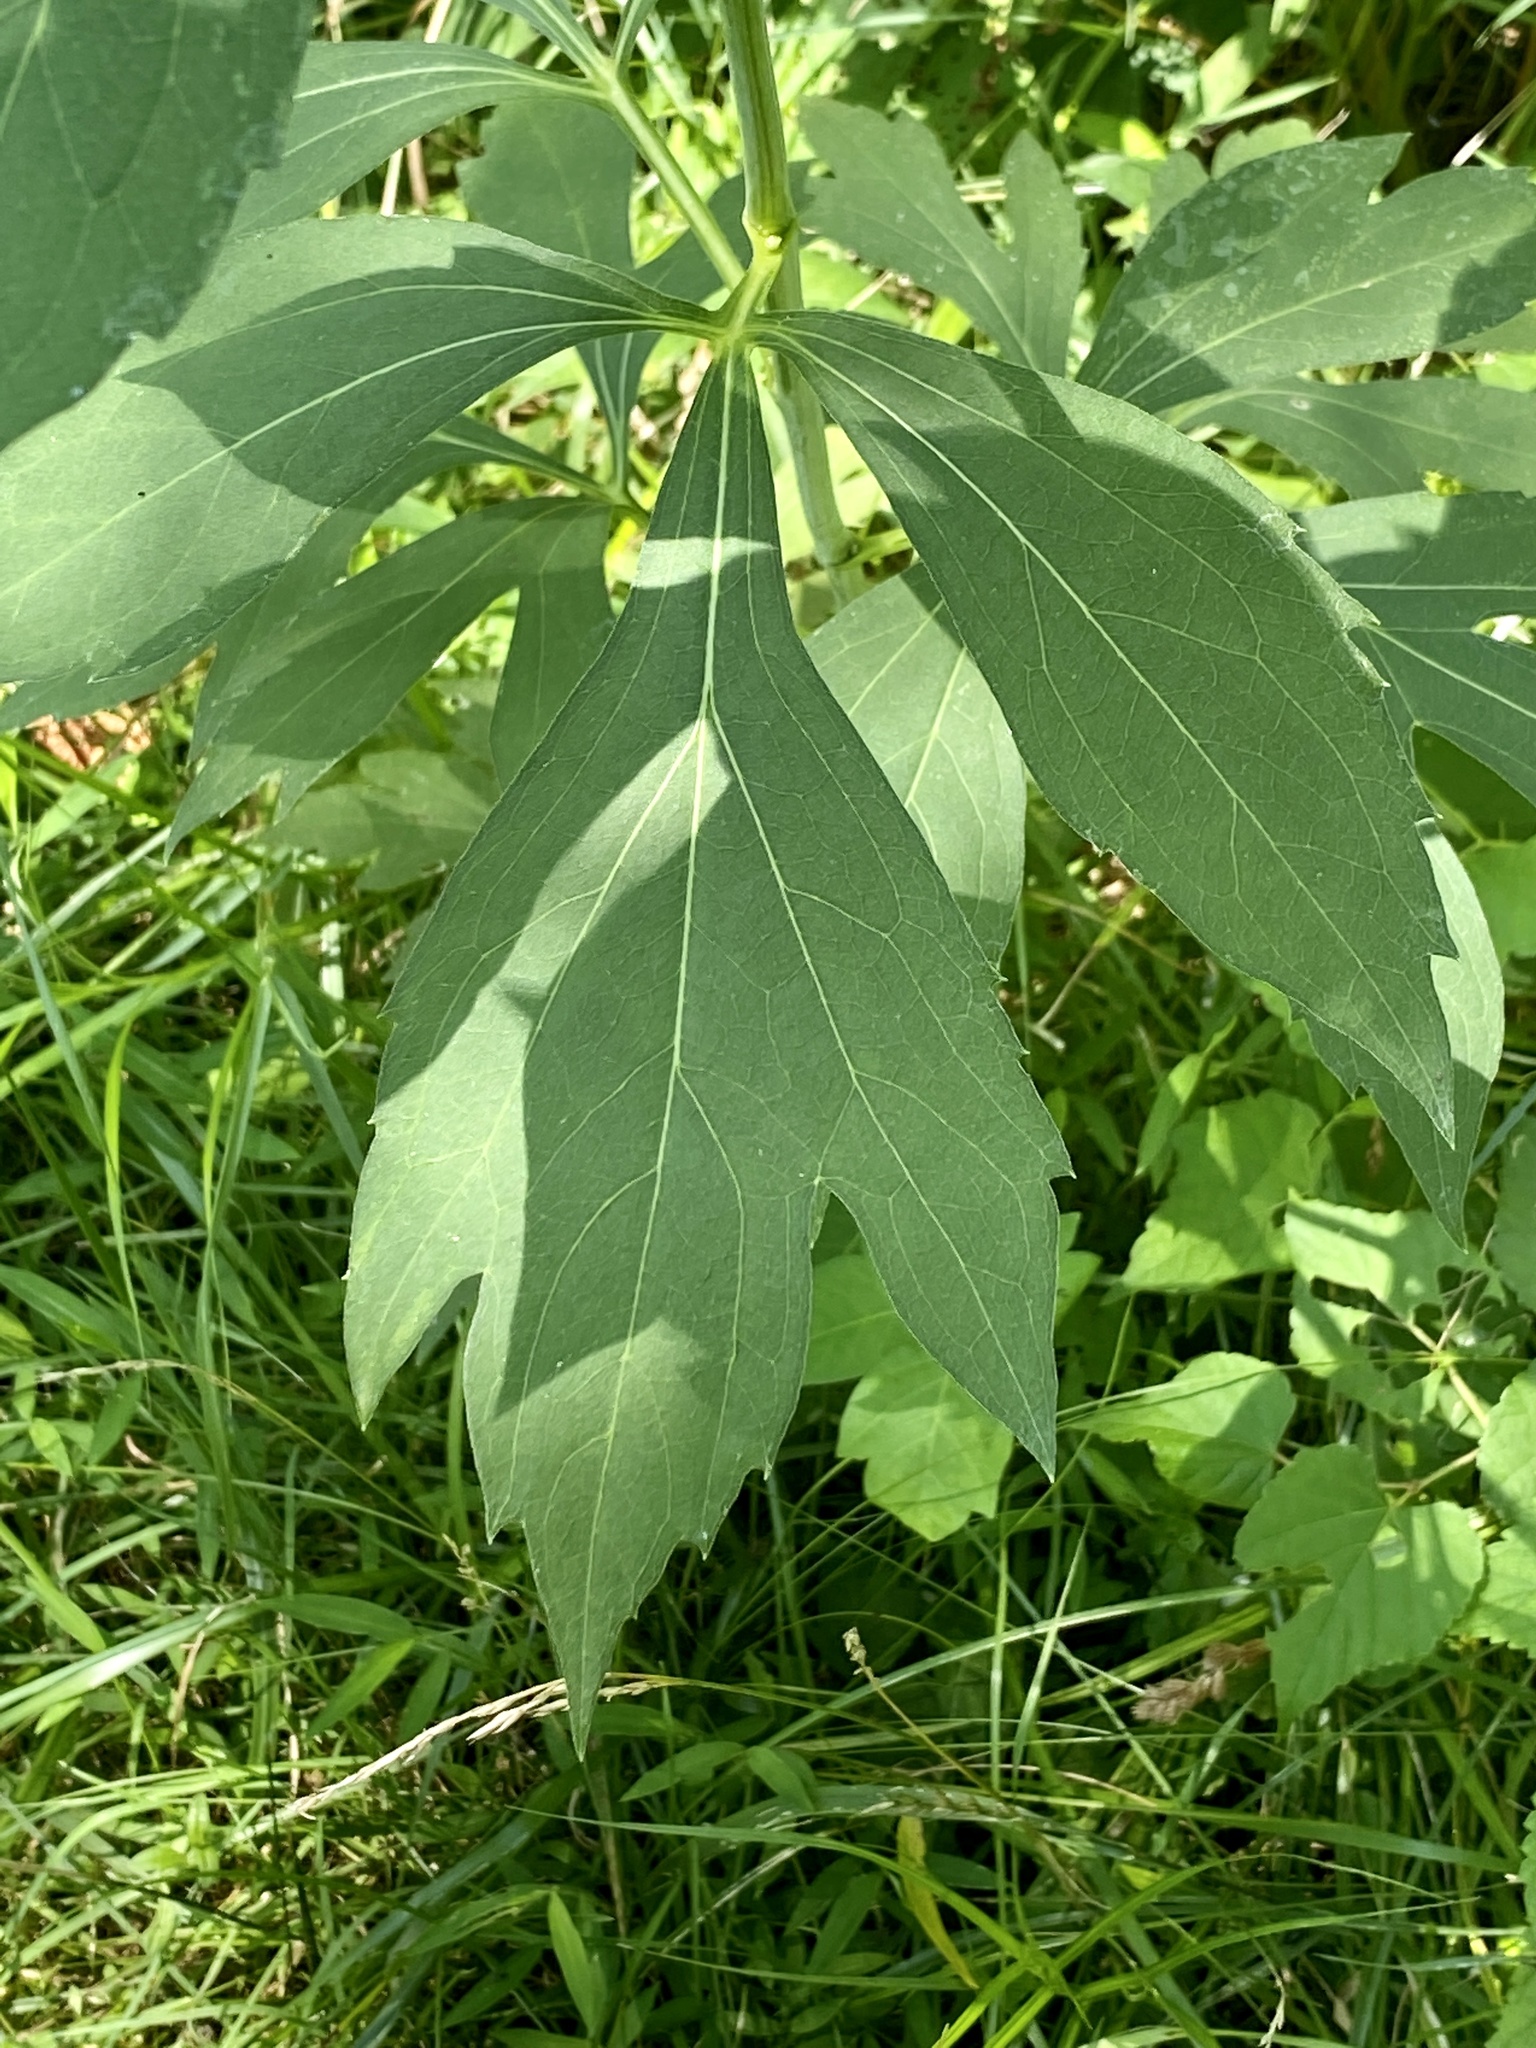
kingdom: Plantae
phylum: Tracheophyta
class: Magnoliopsida
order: Asterales
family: Asteraceae
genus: Rudbeckia
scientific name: Rudbeckia laciniata
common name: Coneflower
